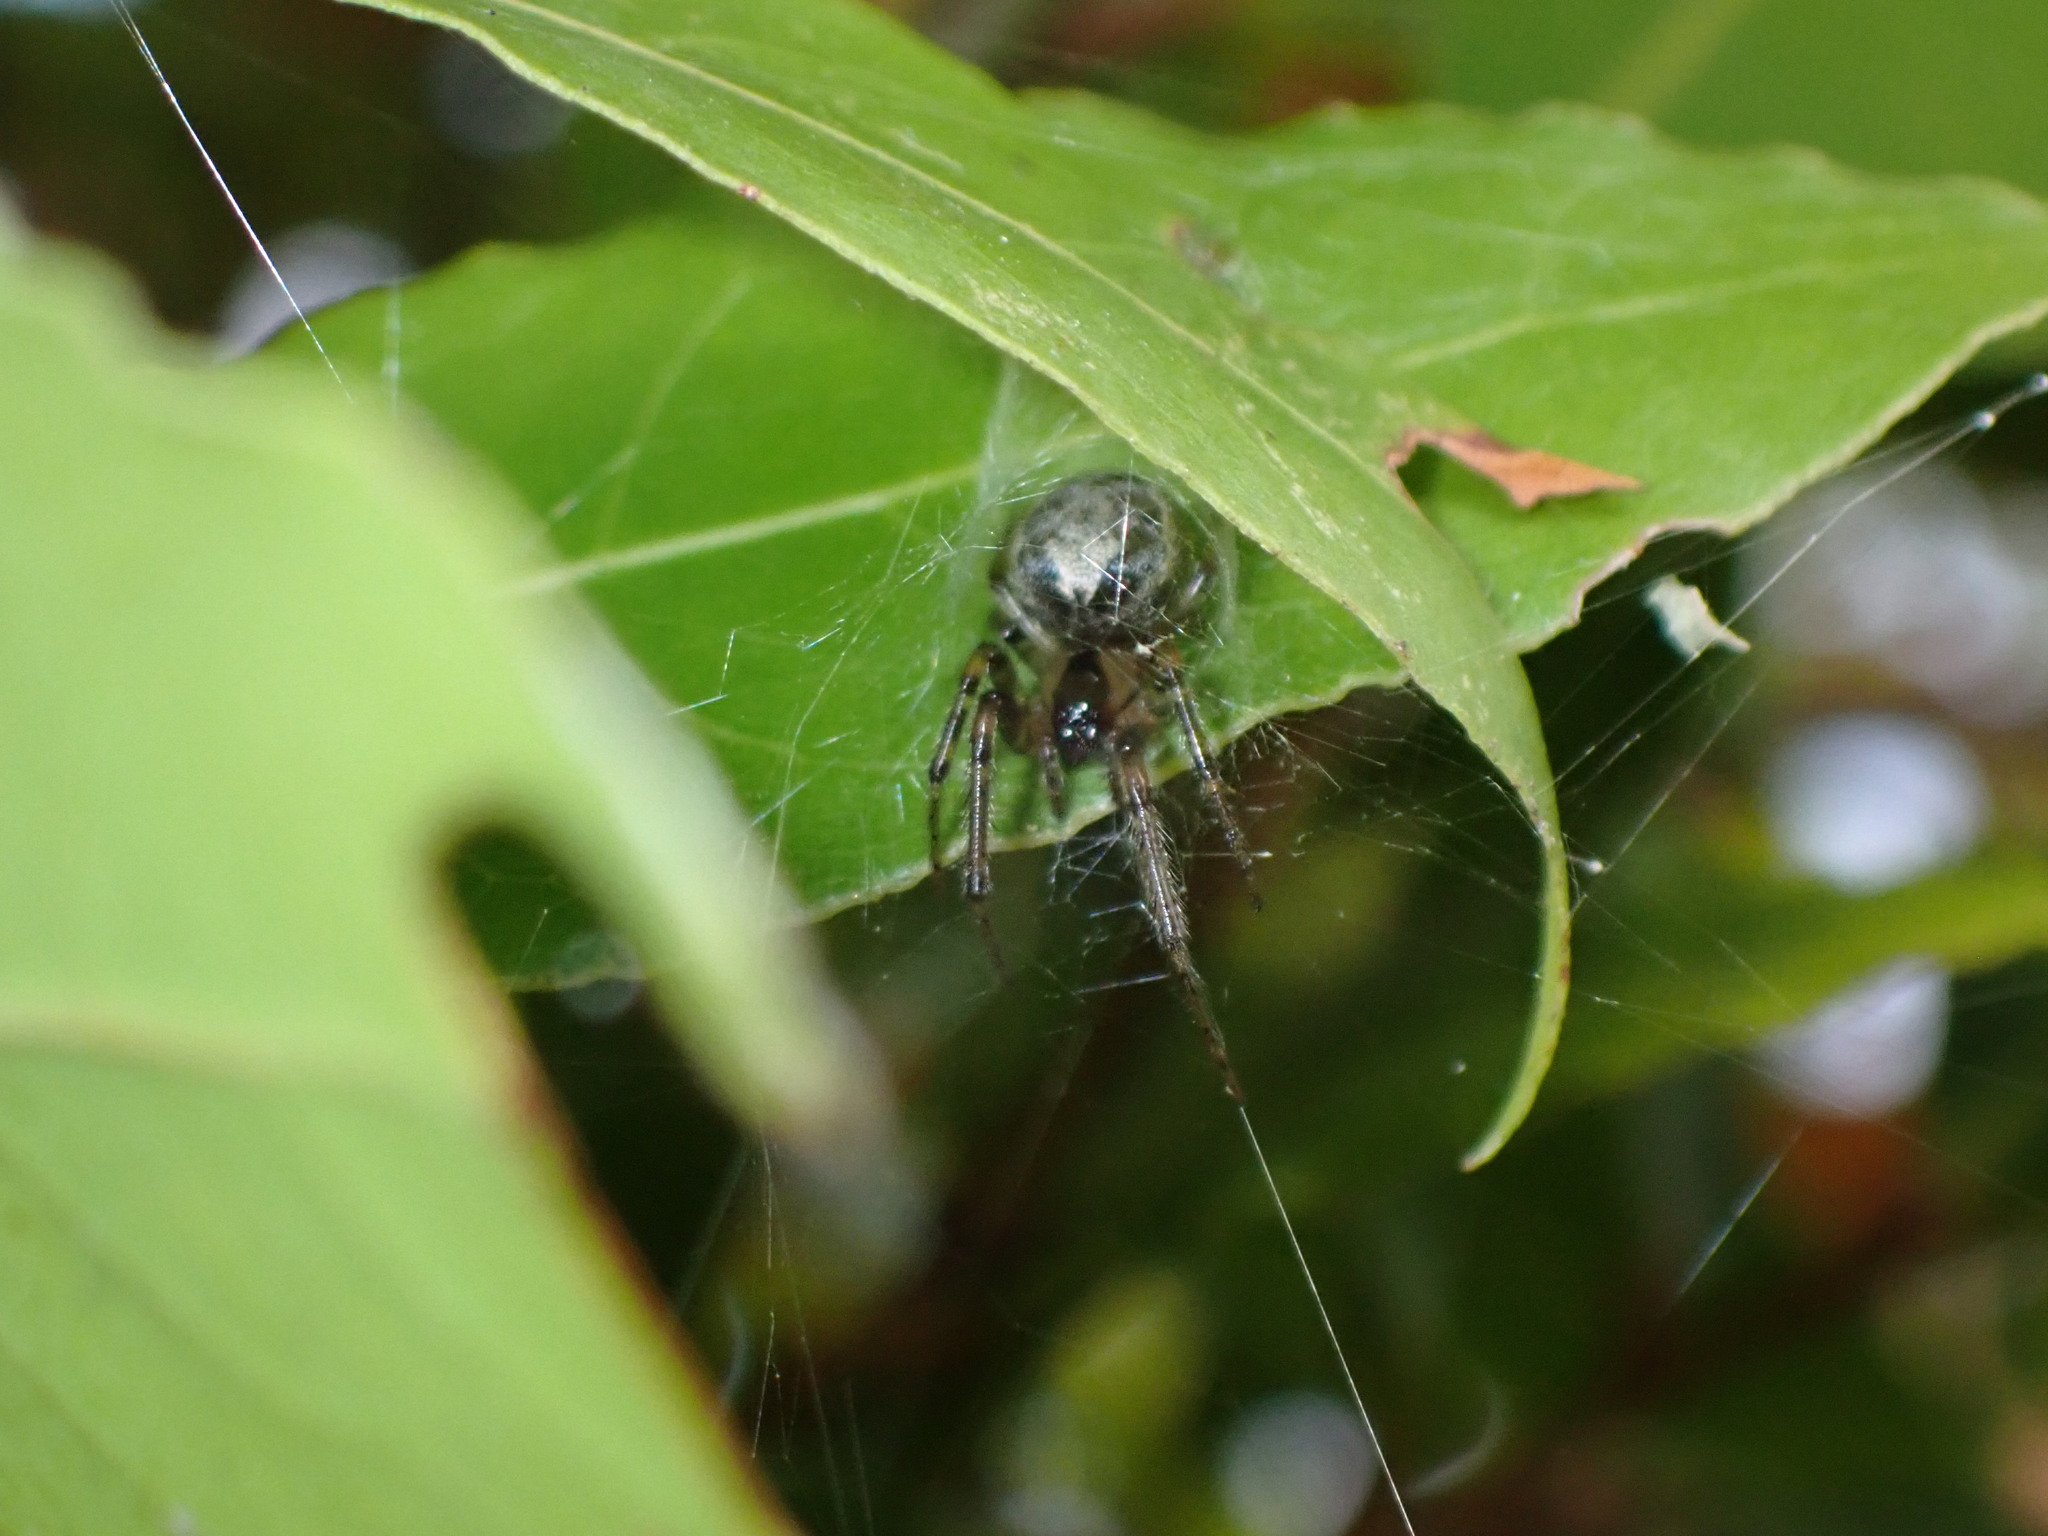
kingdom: Animalia
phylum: Arthropoda
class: Arachnida
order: Araneae
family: Araneidae
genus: Zygiella
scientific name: Zygiella x-notata
